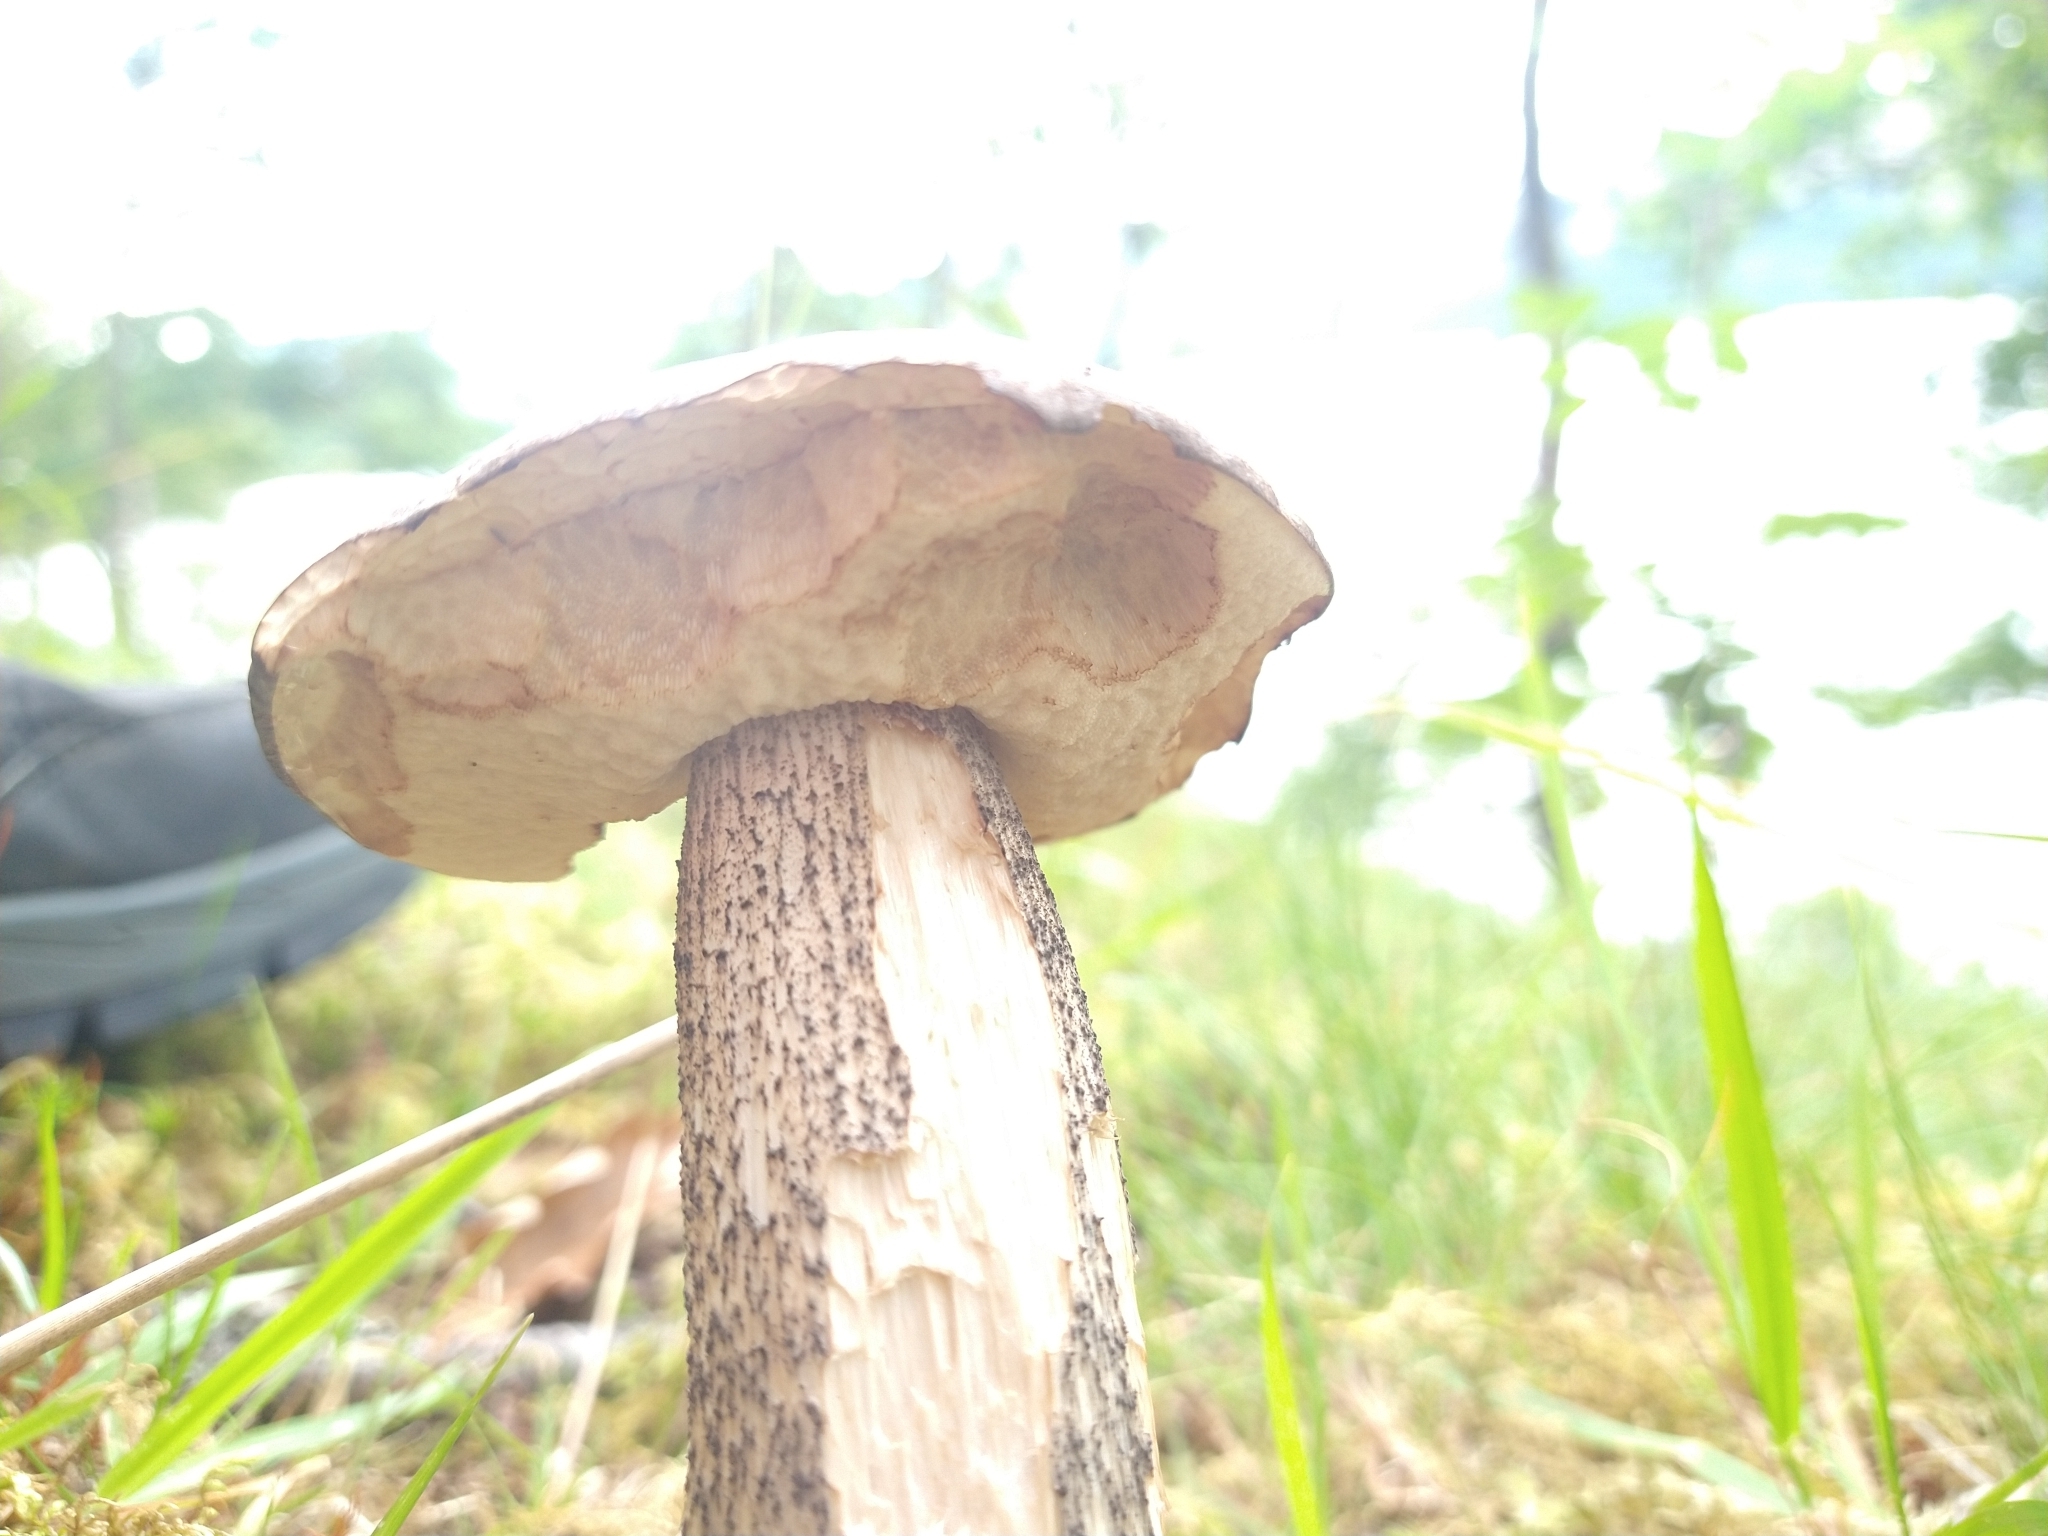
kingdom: Fungi
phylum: Basidiomycota
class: Agaricomycetes
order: Boletales
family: Boletaceae
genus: Leccinum
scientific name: Leccinum scabrum
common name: Blushing bolete
